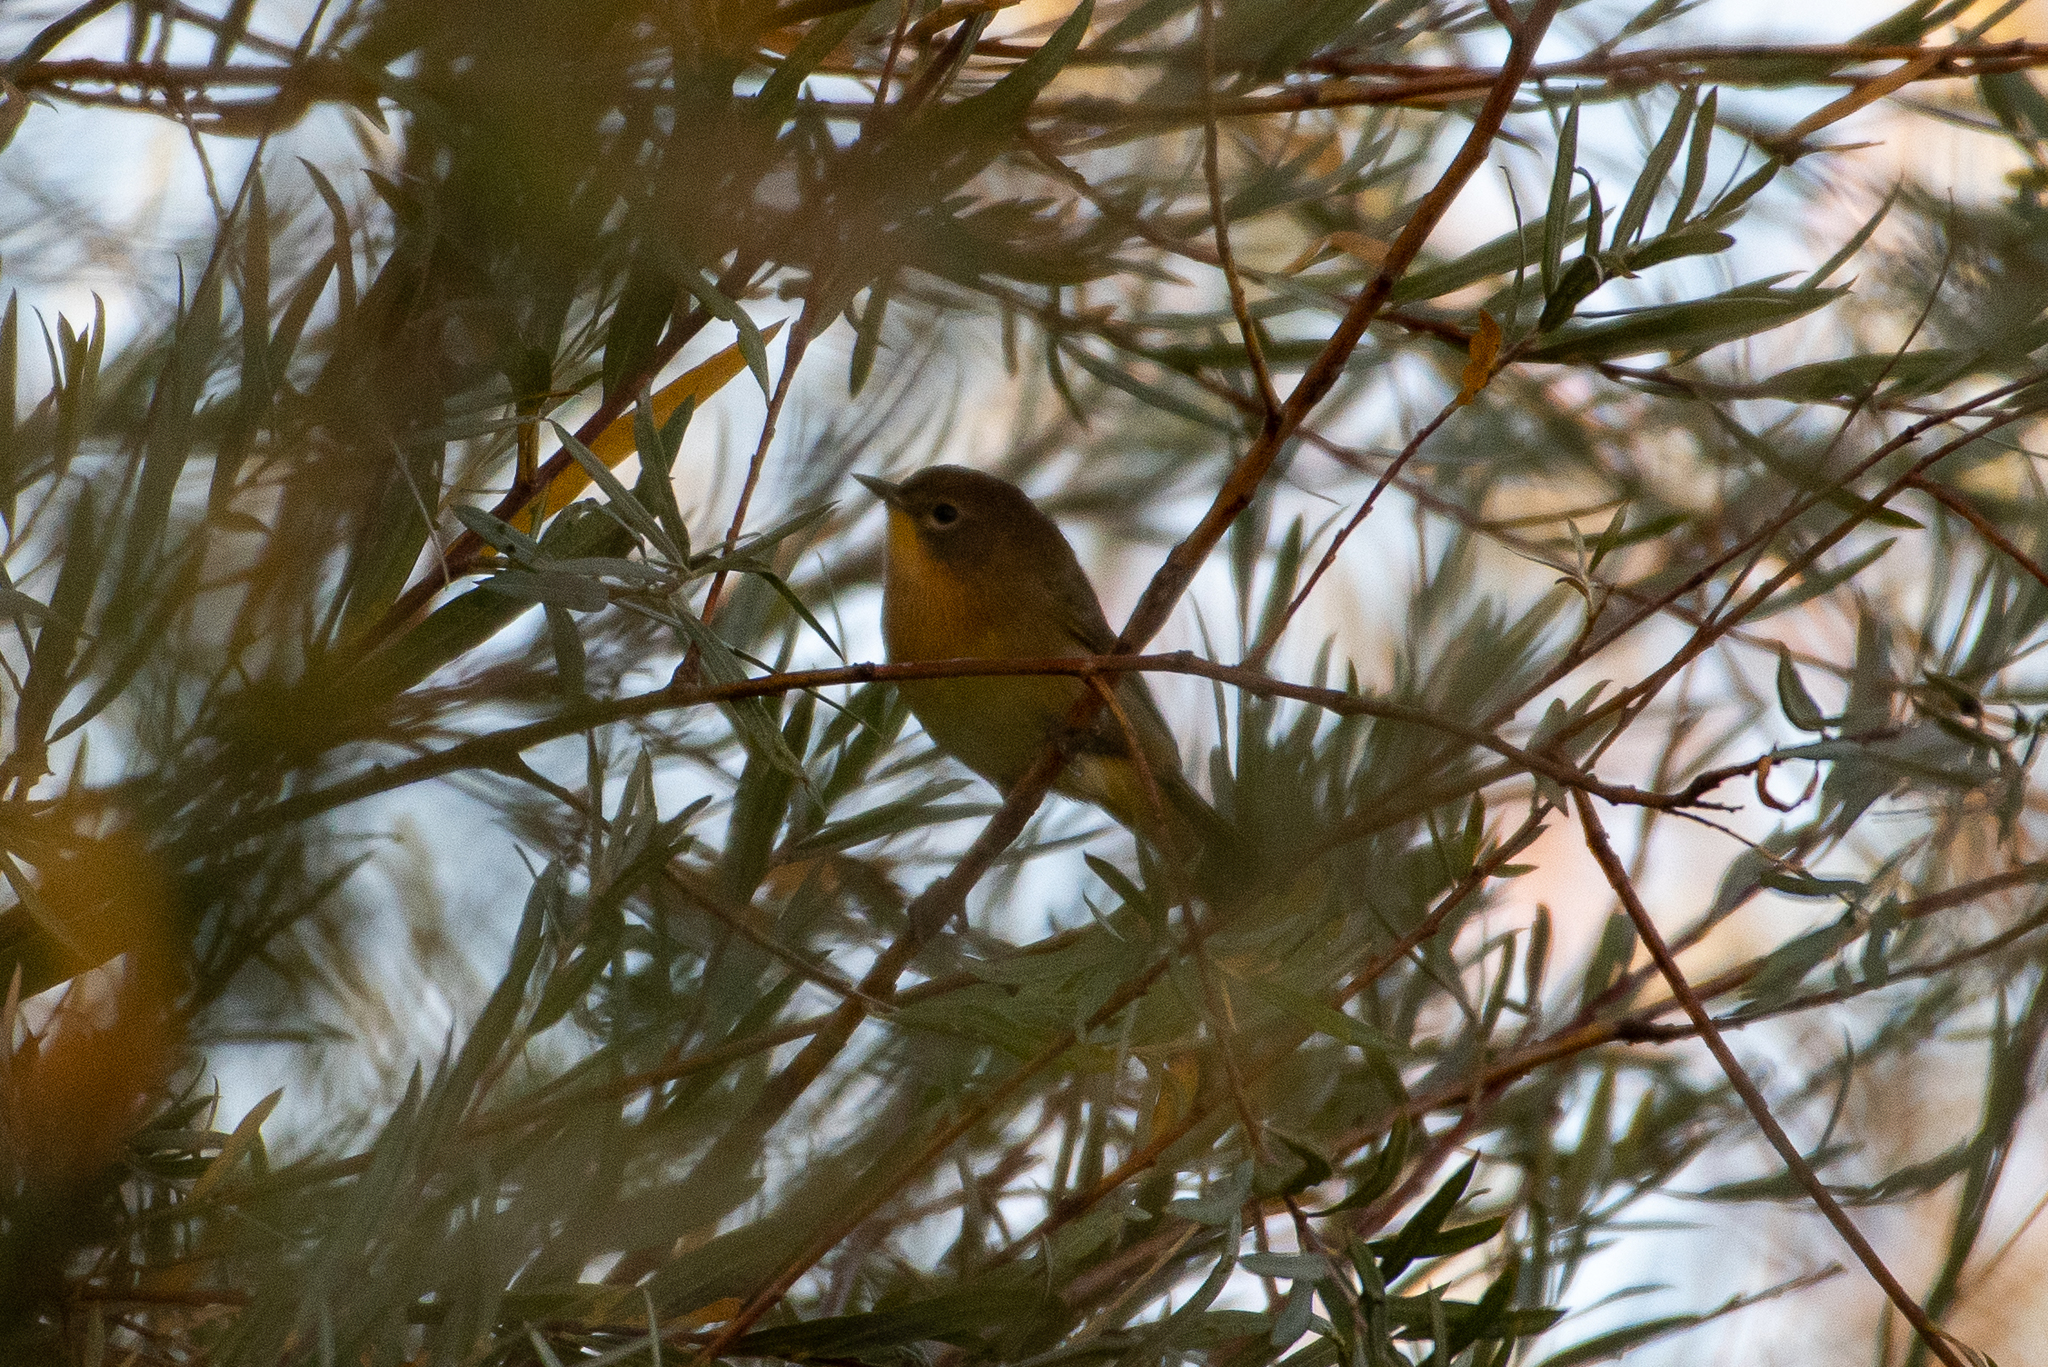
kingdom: Animalia
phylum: Chordata
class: Aves
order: Passeriformes
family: Parulidae
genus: Geothlypis
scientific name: Geothlypis trichas
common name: Common yellowthroat
